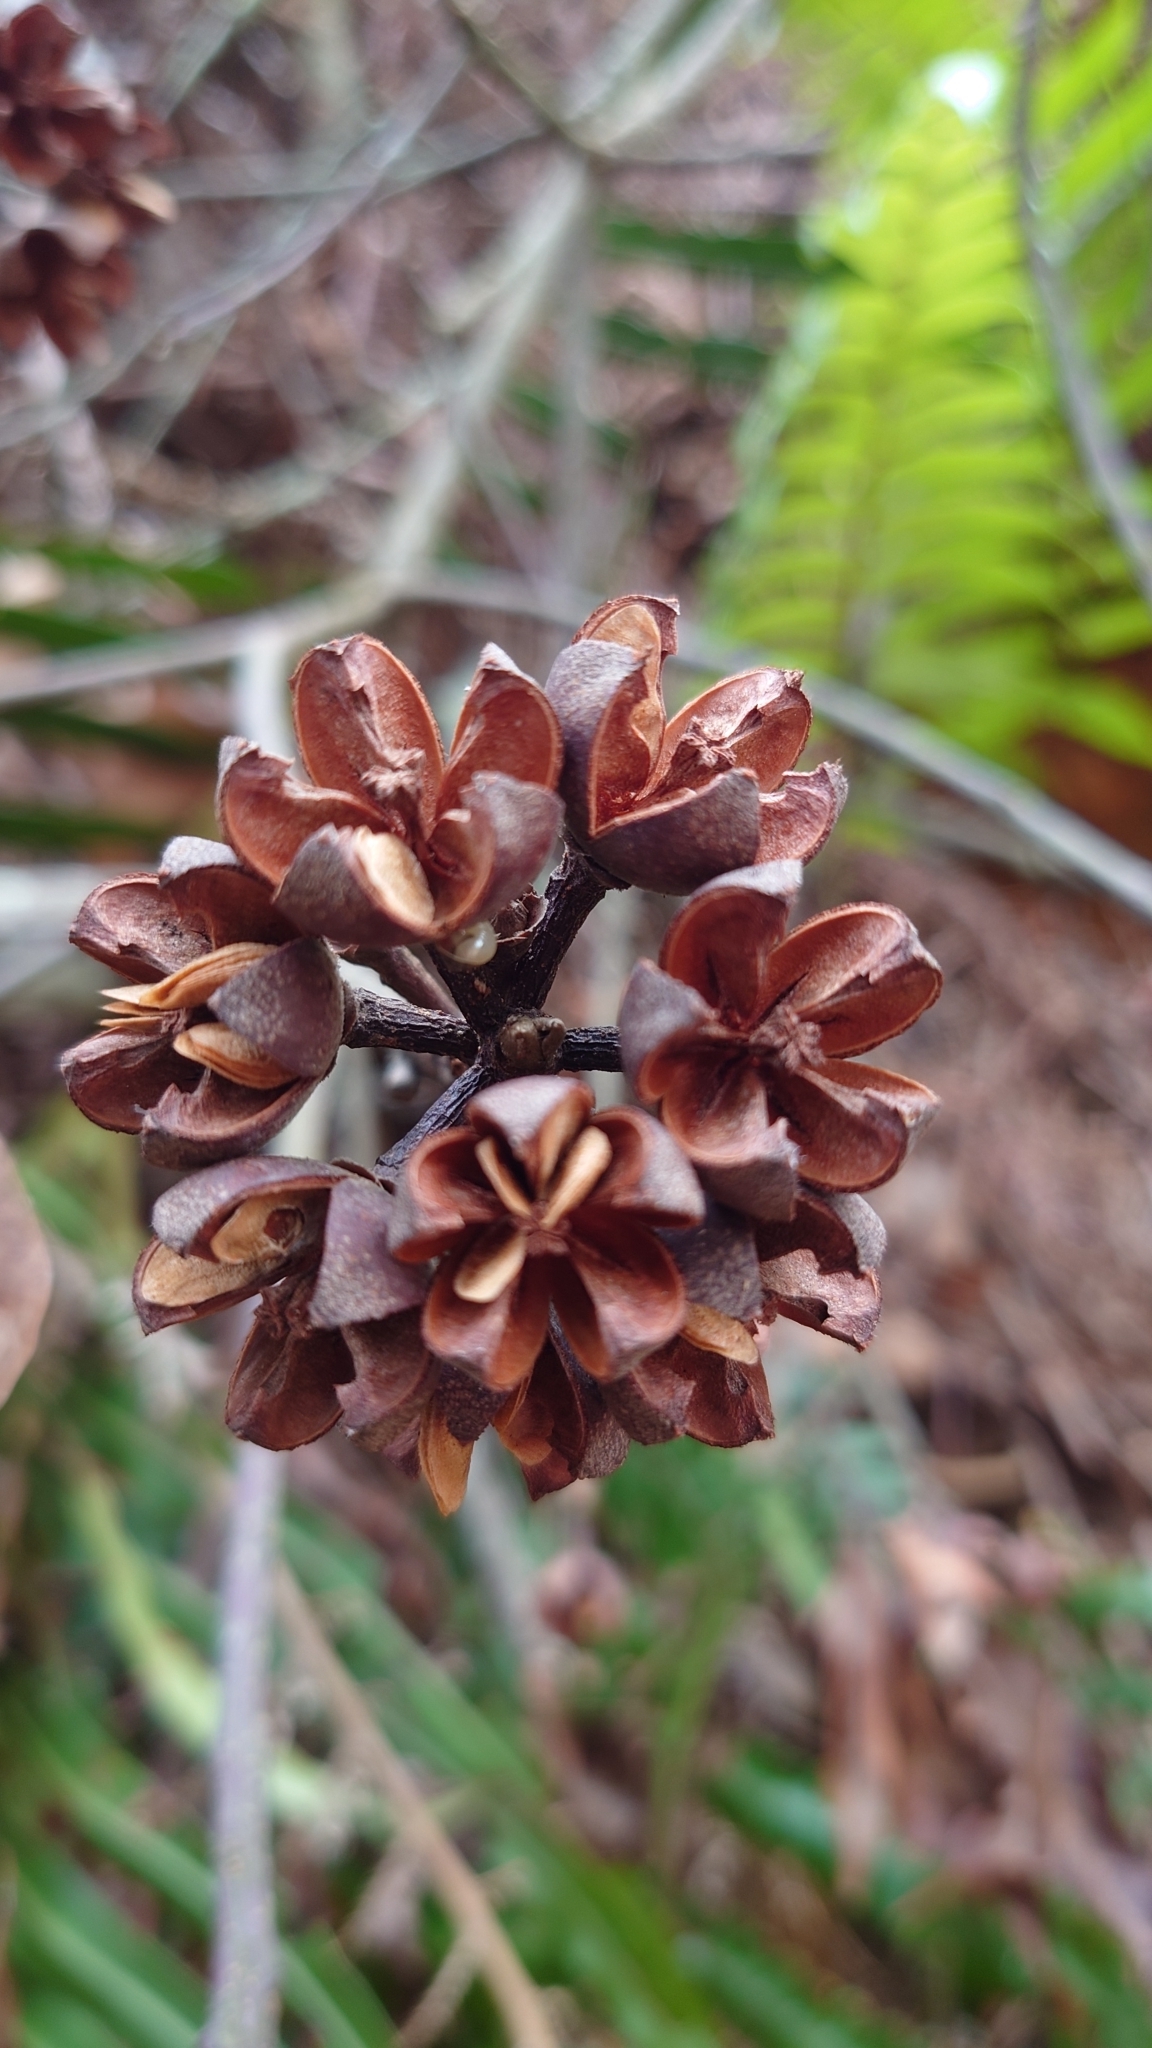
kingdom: Plantae
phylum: Tracheophyta
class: Magnoliopsida
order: Ericales
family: Theaceae
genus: Schima
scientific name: Schima superba
